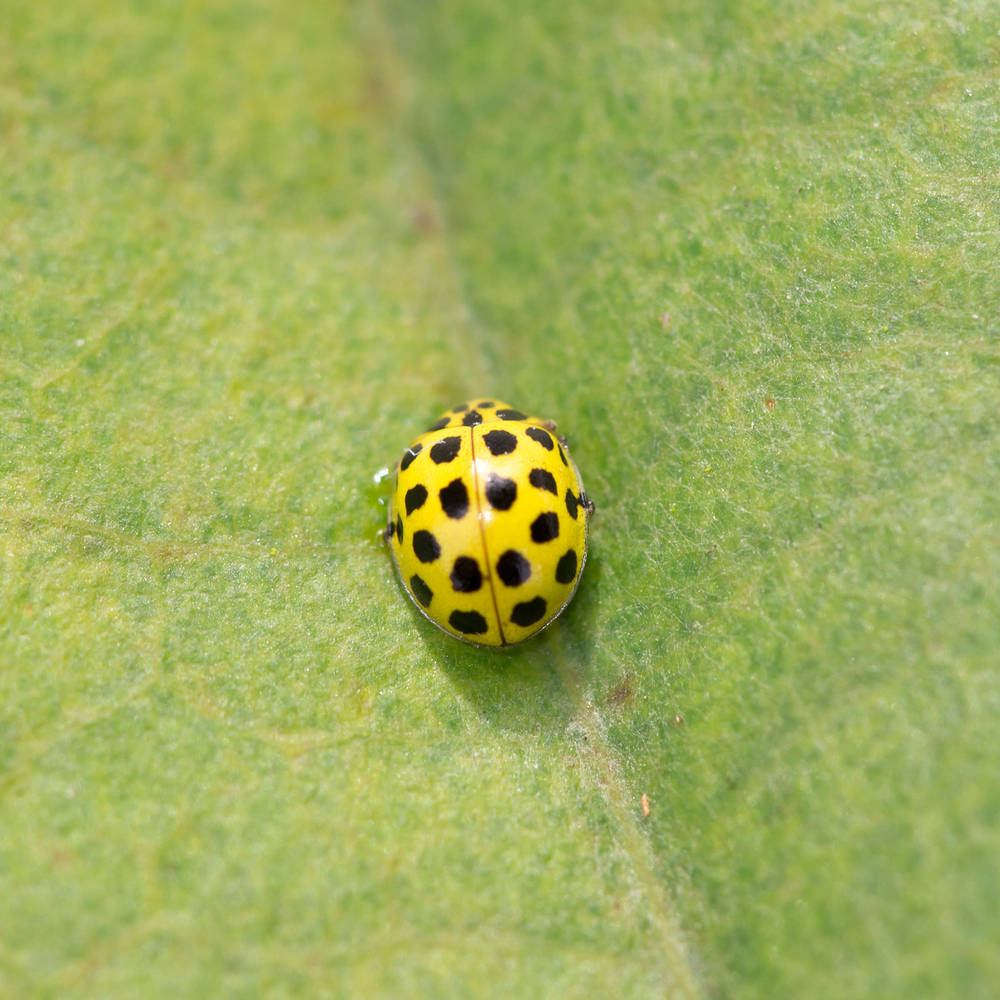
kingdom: Animalia
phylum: Arthropoda
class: Insecta
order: Coleoptera
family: Coccinellidae
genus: Psyllobora
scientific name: Psyllobora vigintiduopunctata
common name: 22-spot ladybird
